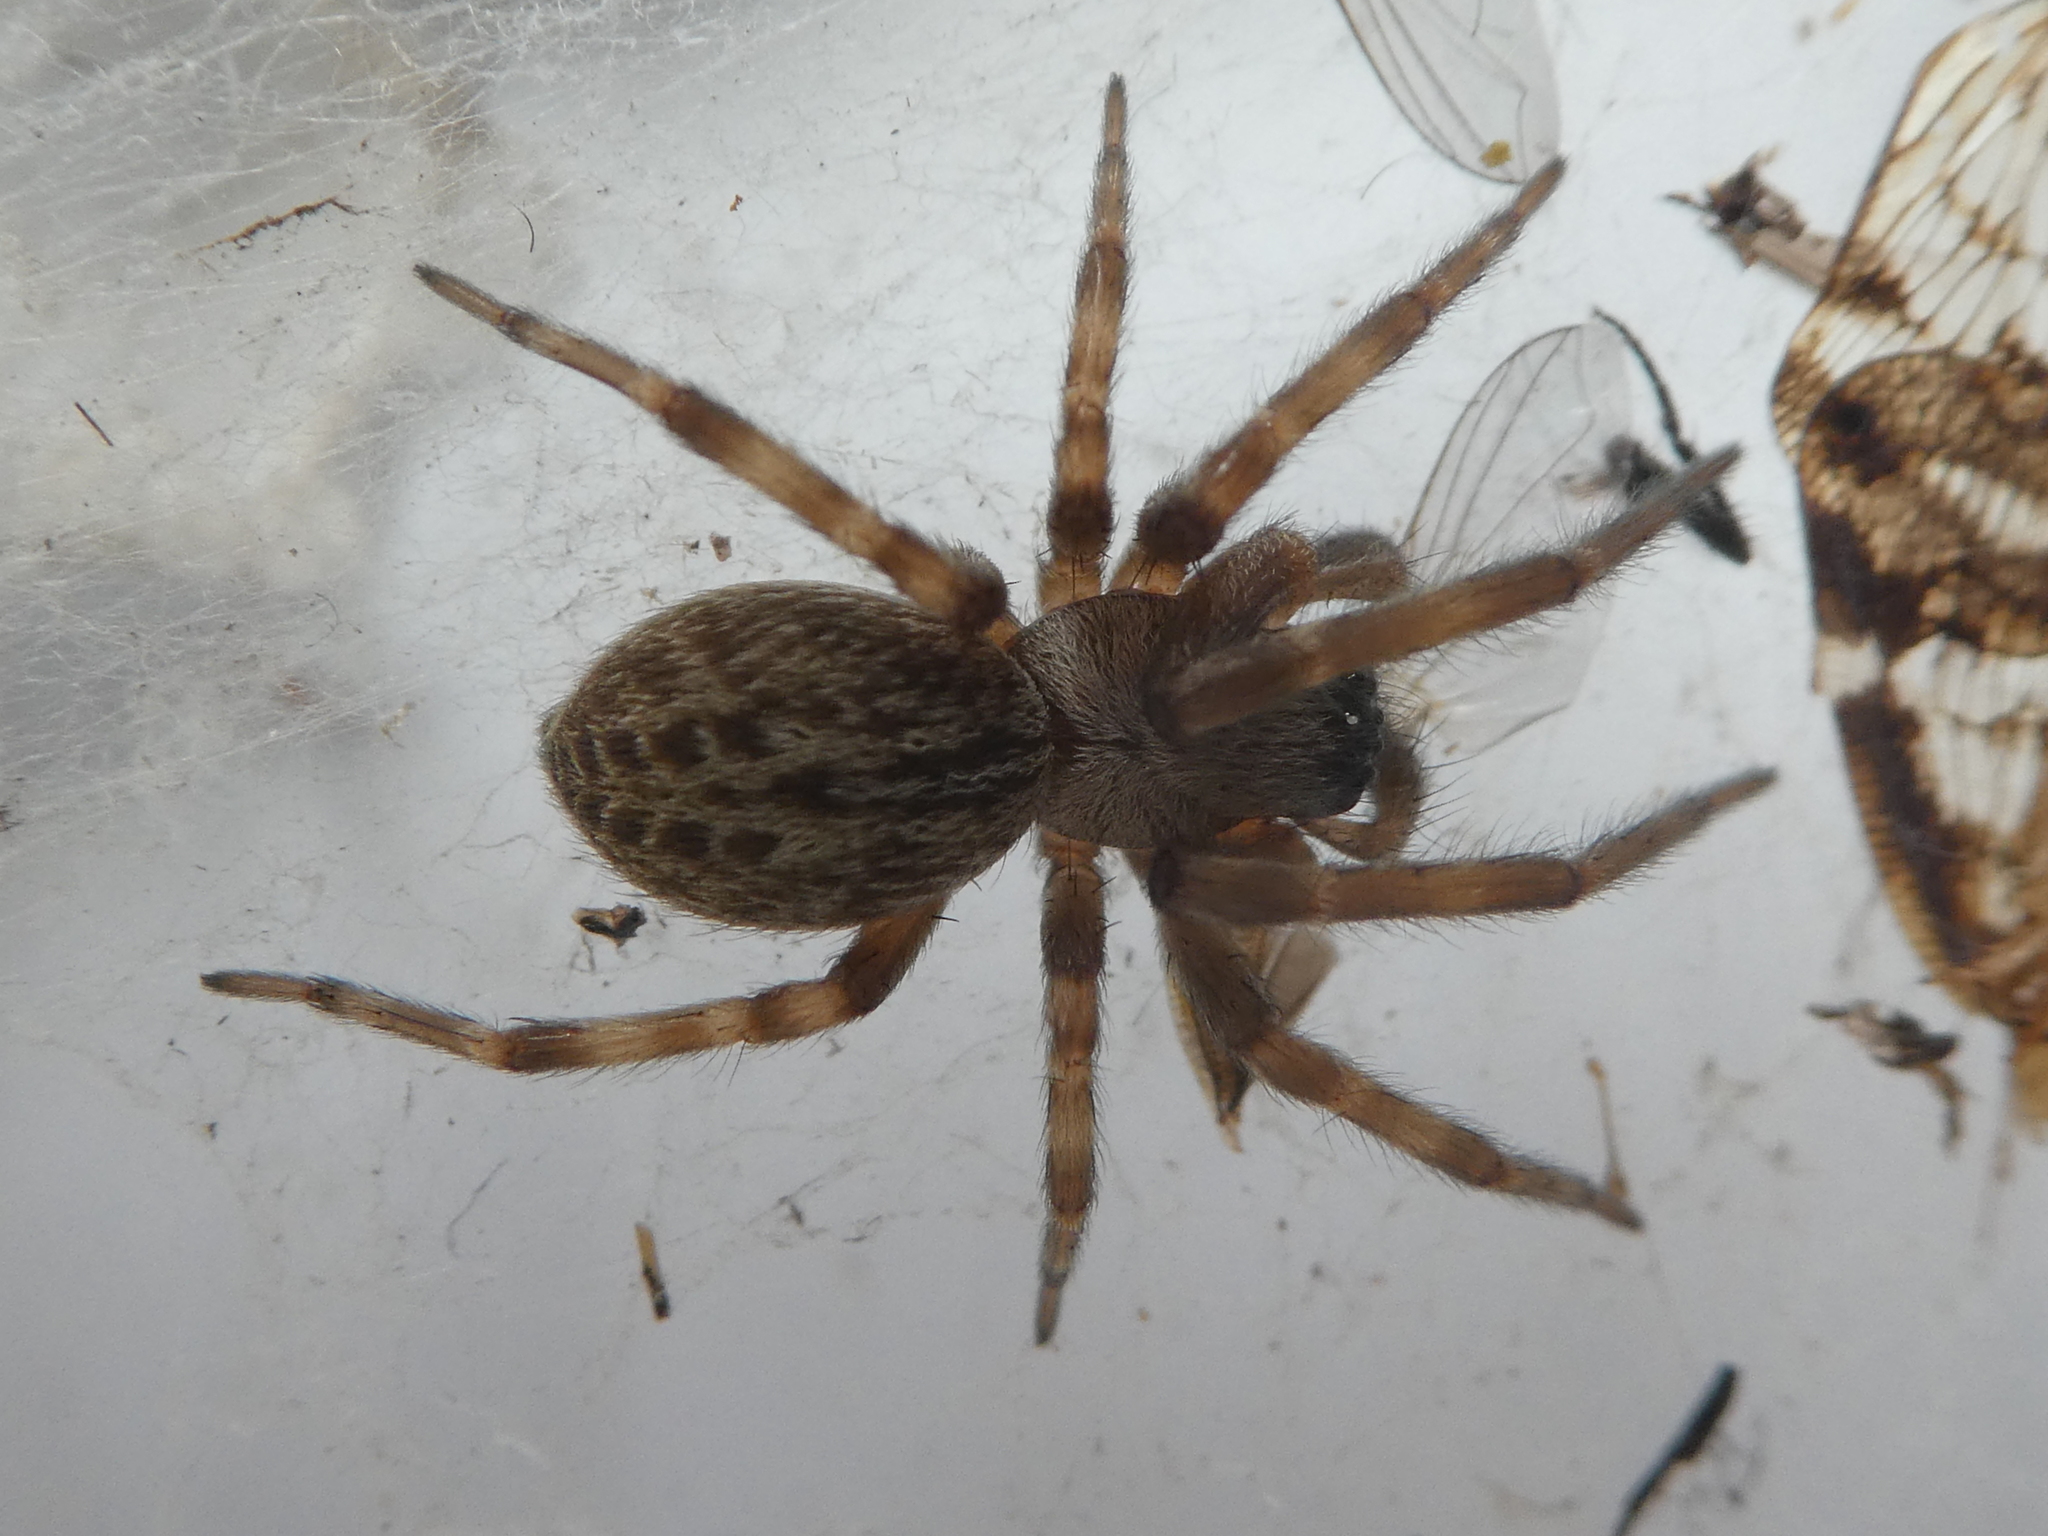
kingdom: Animalia
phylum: Arthropoda
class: Arachnida
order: Araneae
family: Desidae
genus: Badumna
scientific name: Badumna longinqua
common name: Gray house spider
